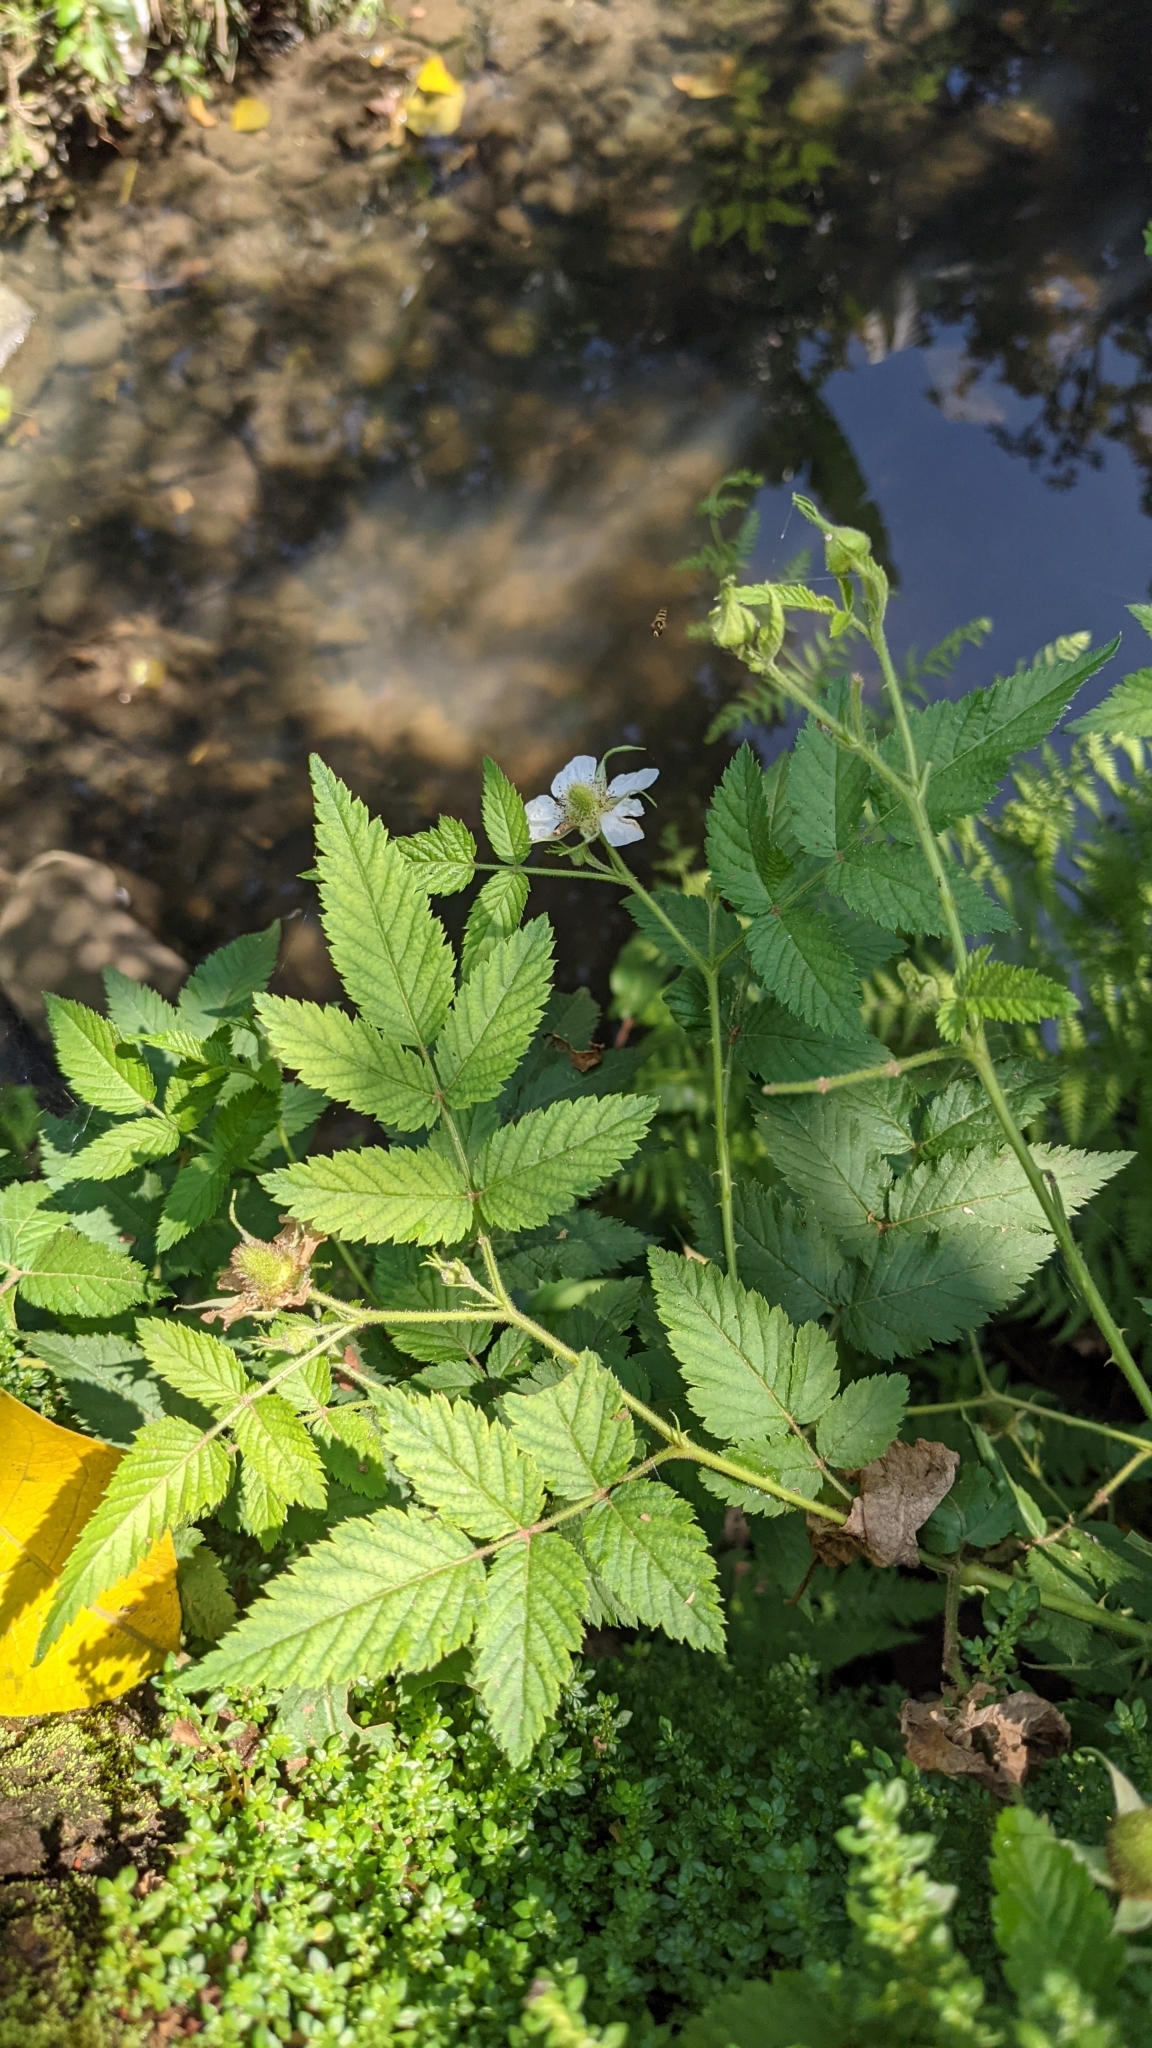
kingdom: Plantae
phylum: Tracheophyta
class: Magnoliopsida
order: Rosales
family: Rosaceae
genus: Rubus
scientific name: Rubus rosifolius
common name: Roseleaf raspberry
